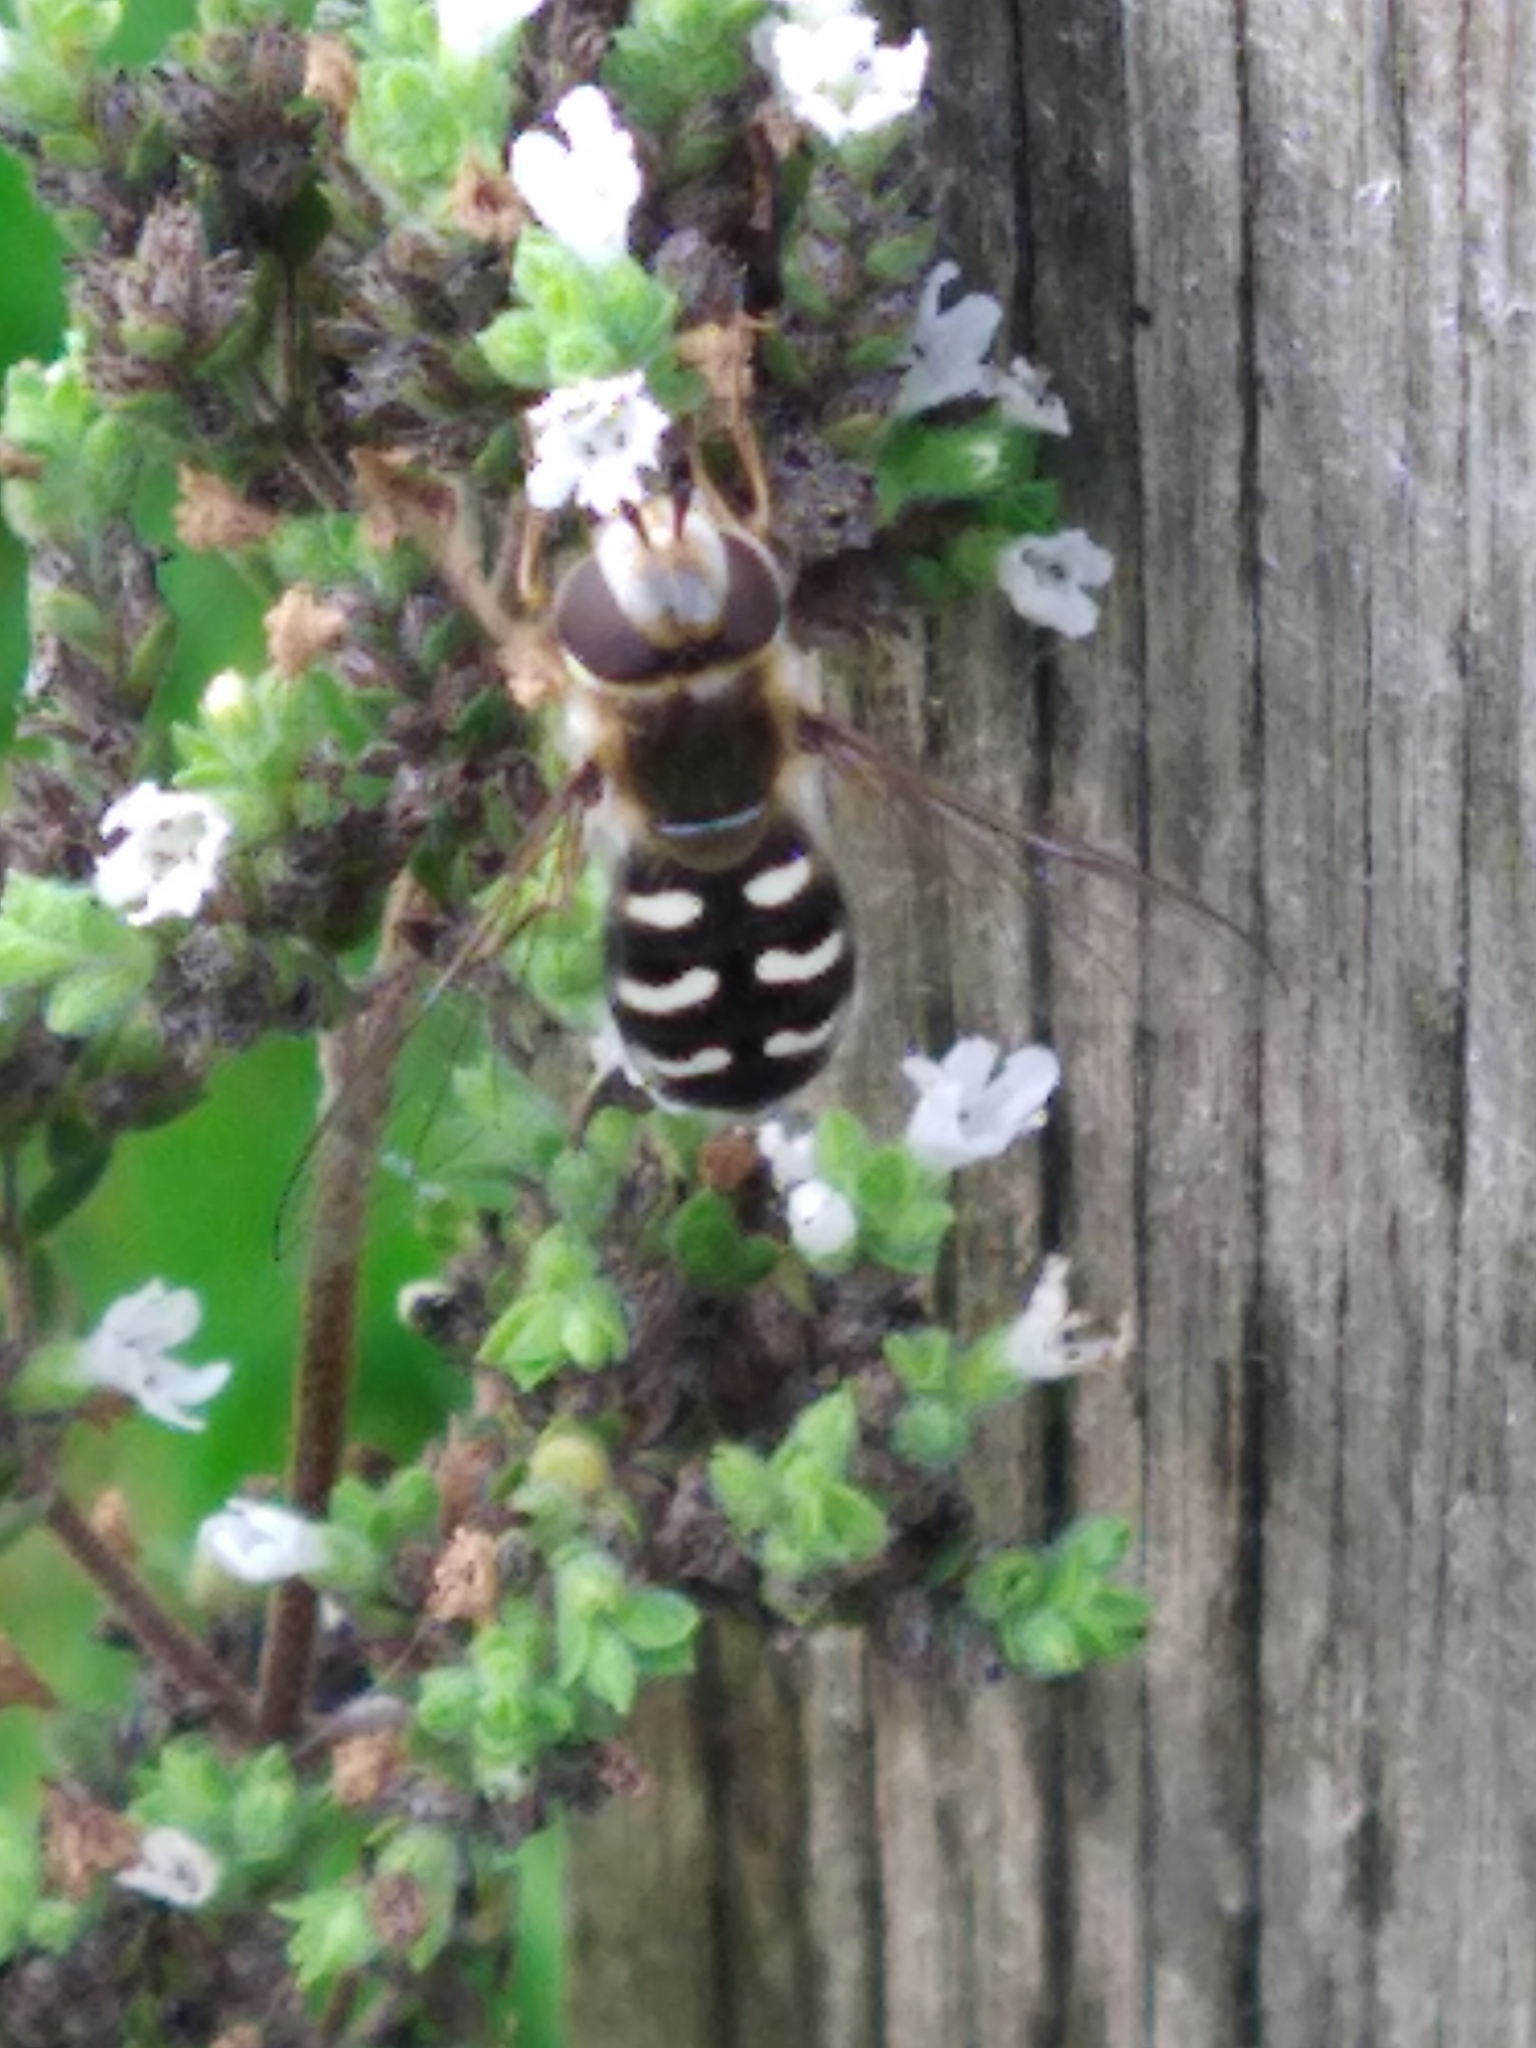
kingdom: Animalia
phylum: Arthropoda
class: Insecta
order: Diptera
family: Syrphidae
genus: Scaeva
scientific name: Scaeva pyrastri
